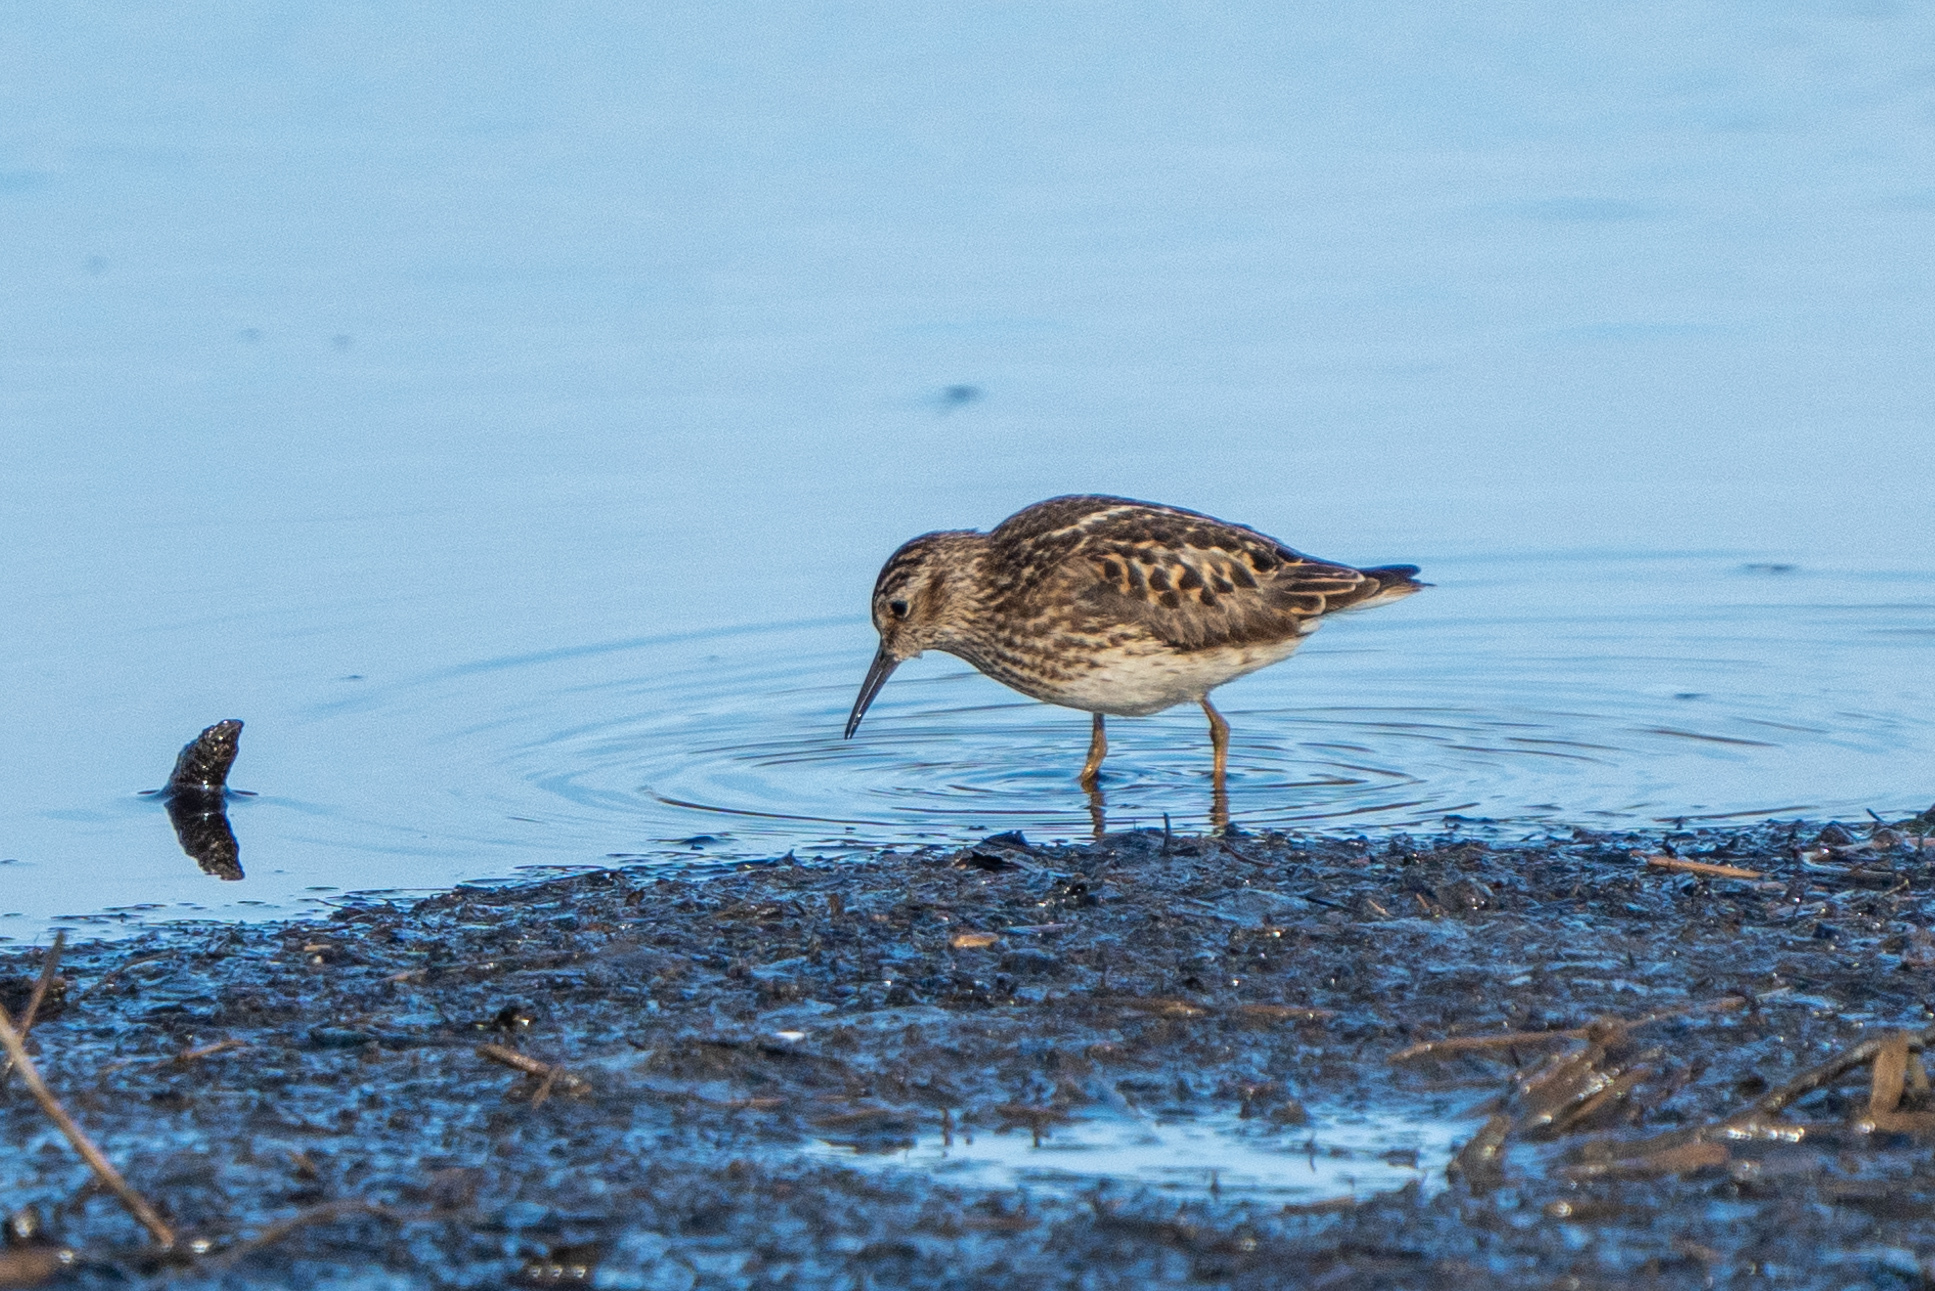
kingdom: Animalia
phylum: Chordata
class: Aves
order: Charadriiformes
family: Scolopacidae
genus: Calidris
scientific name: Calidris minutilla
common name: Least sandpiper
